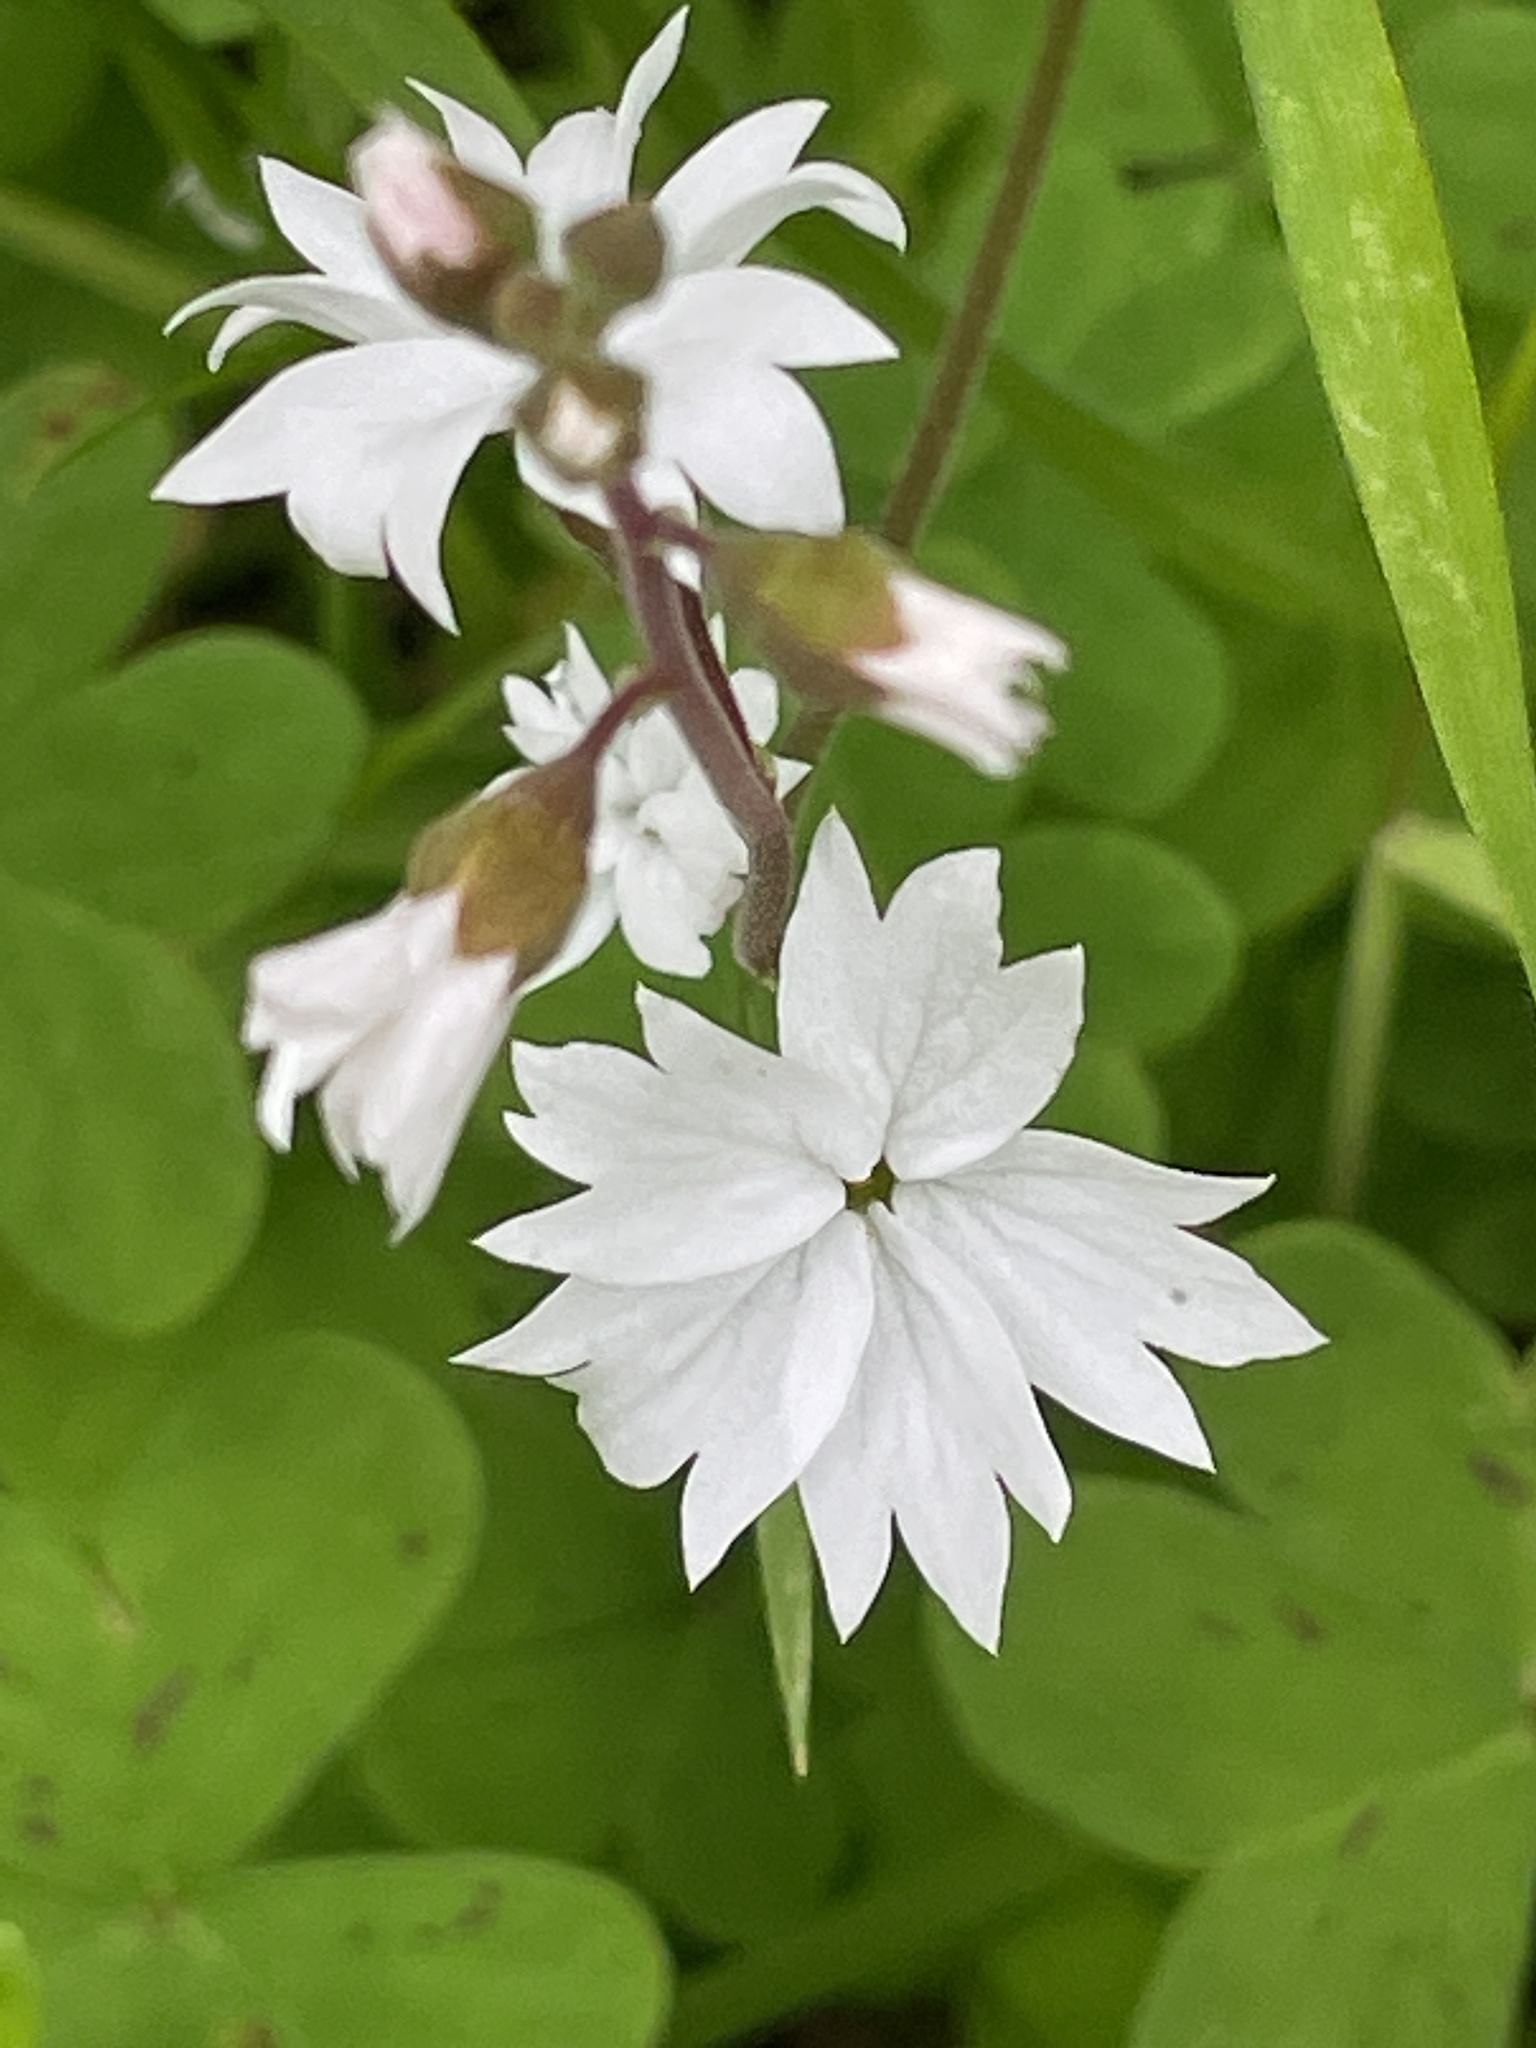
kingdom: Plantae
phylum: Tracheophyta
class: Magnoliopsida
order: Saxifragales
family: Saxifragaceae
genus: Lithophragma
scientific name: Lithophragma affine
